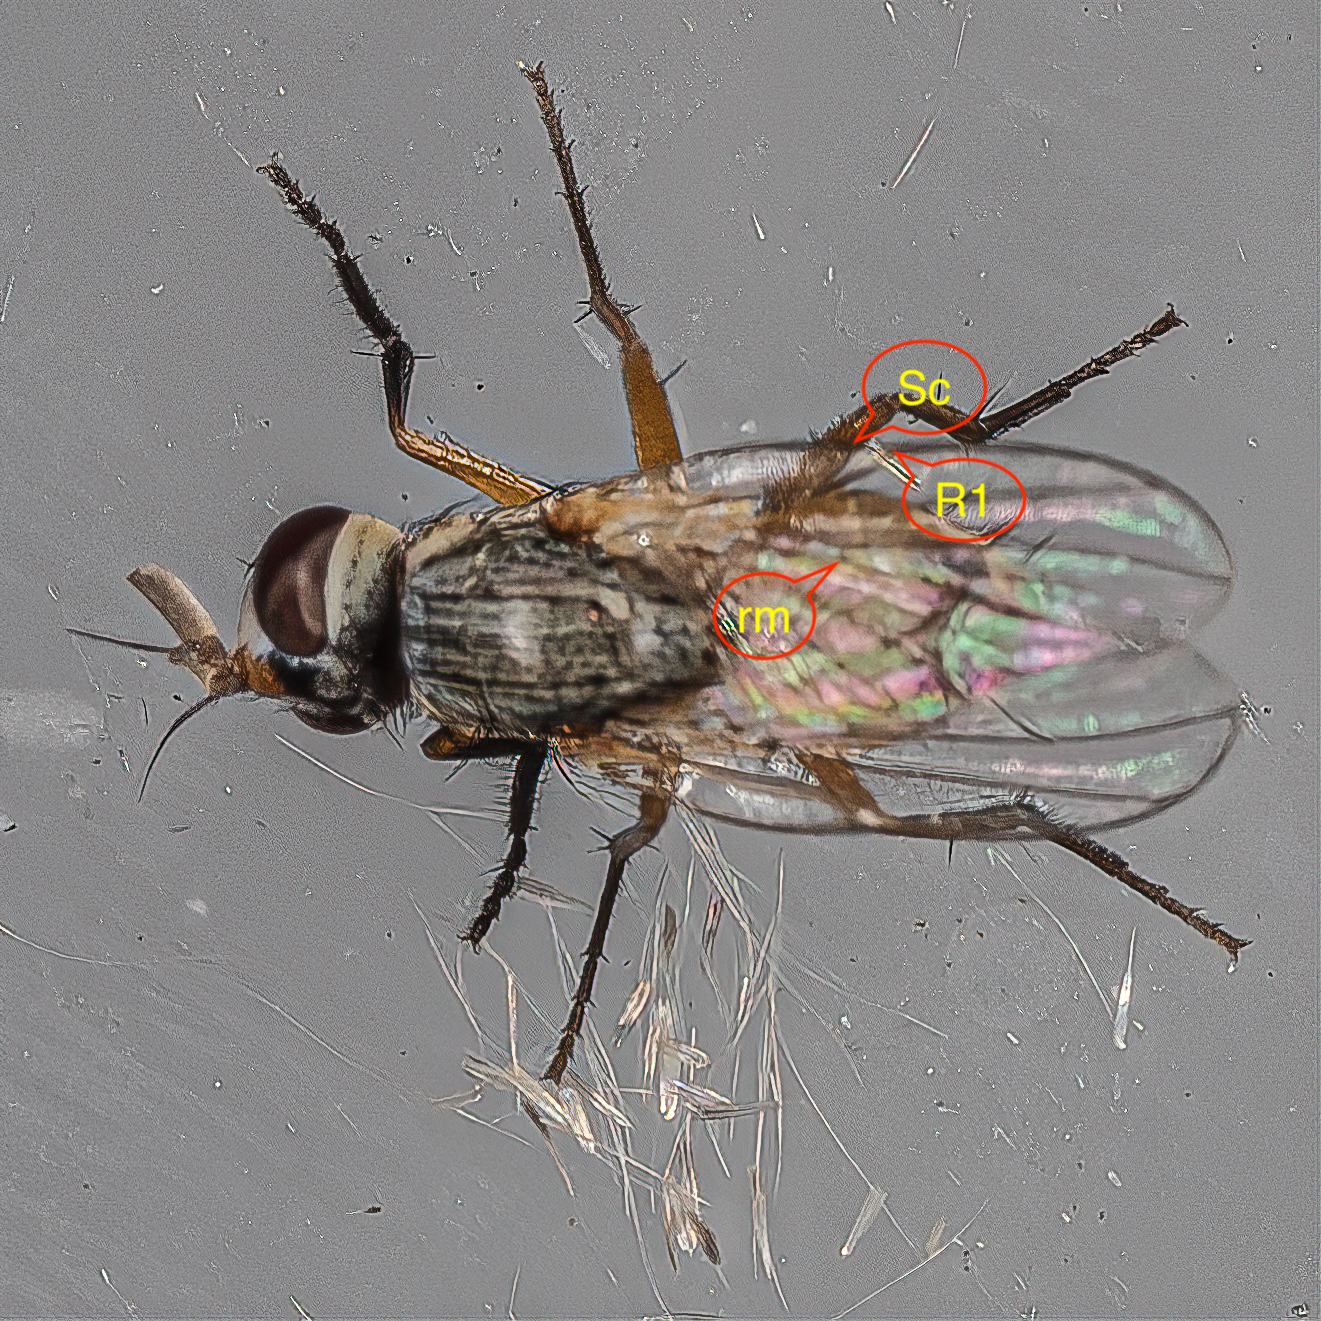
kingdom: Animalia
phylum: Arthropoda
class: Insecta
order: Diptera
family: Muscidae
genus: Atherigona
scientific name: Atherigona reversura
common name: Bermudagrass stem maggot
